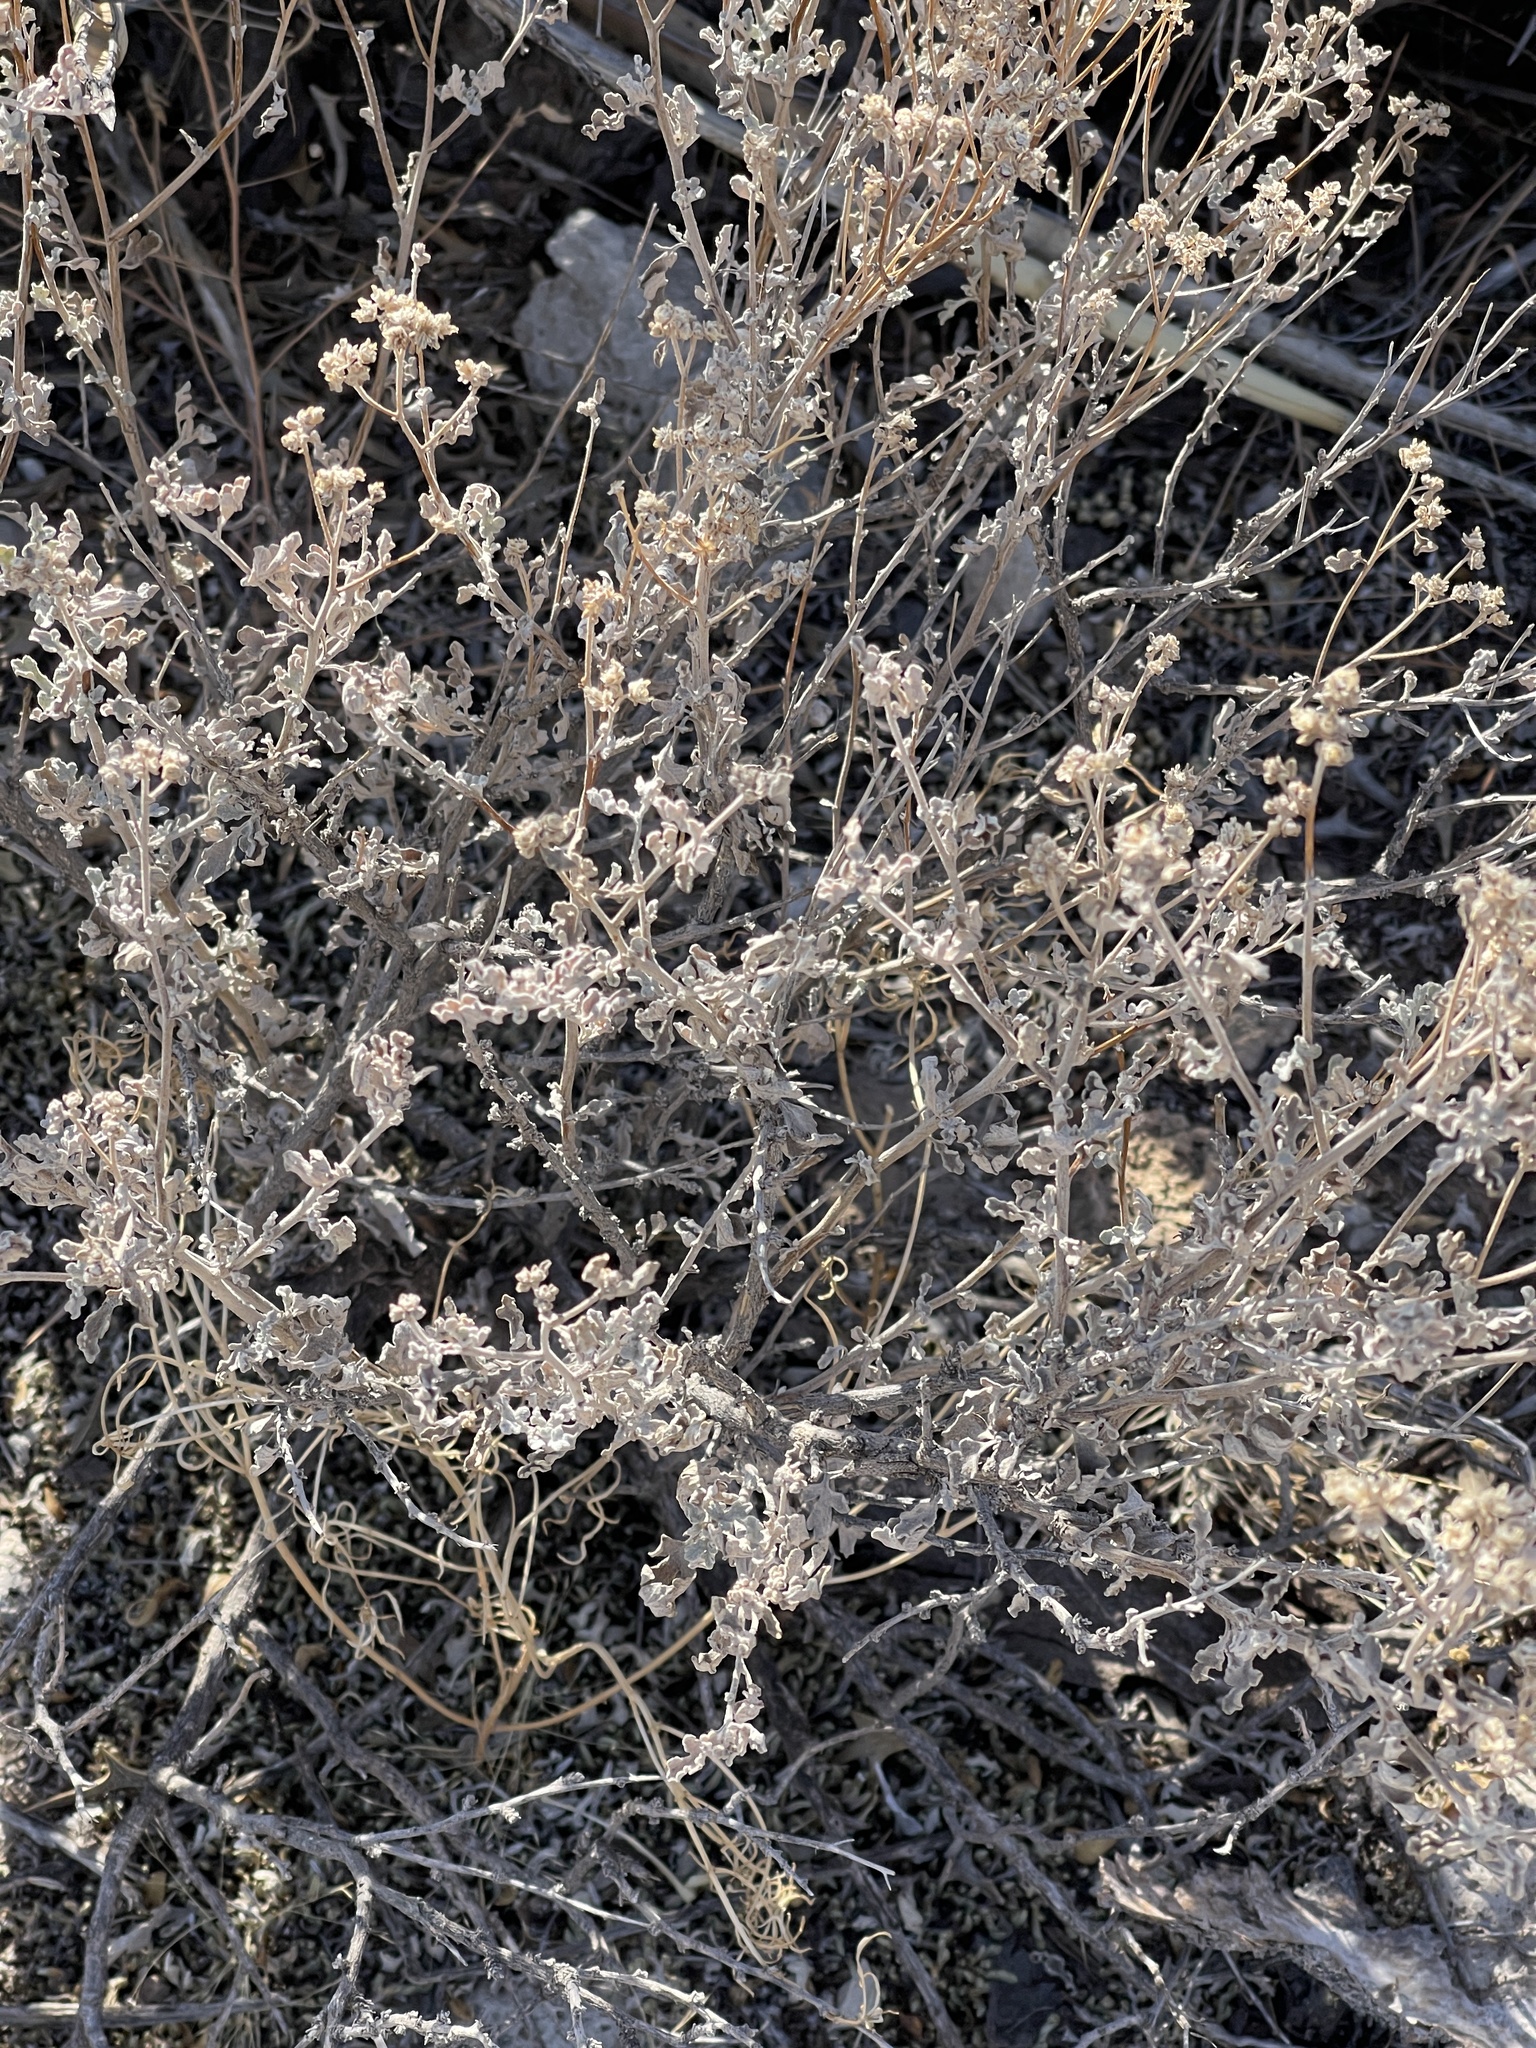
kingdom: Plantae
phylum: Tracheophyta
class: Magnoliopsida
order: Asterales
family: Asteraceae
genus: Parthenium
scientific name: Parthenium incanum
